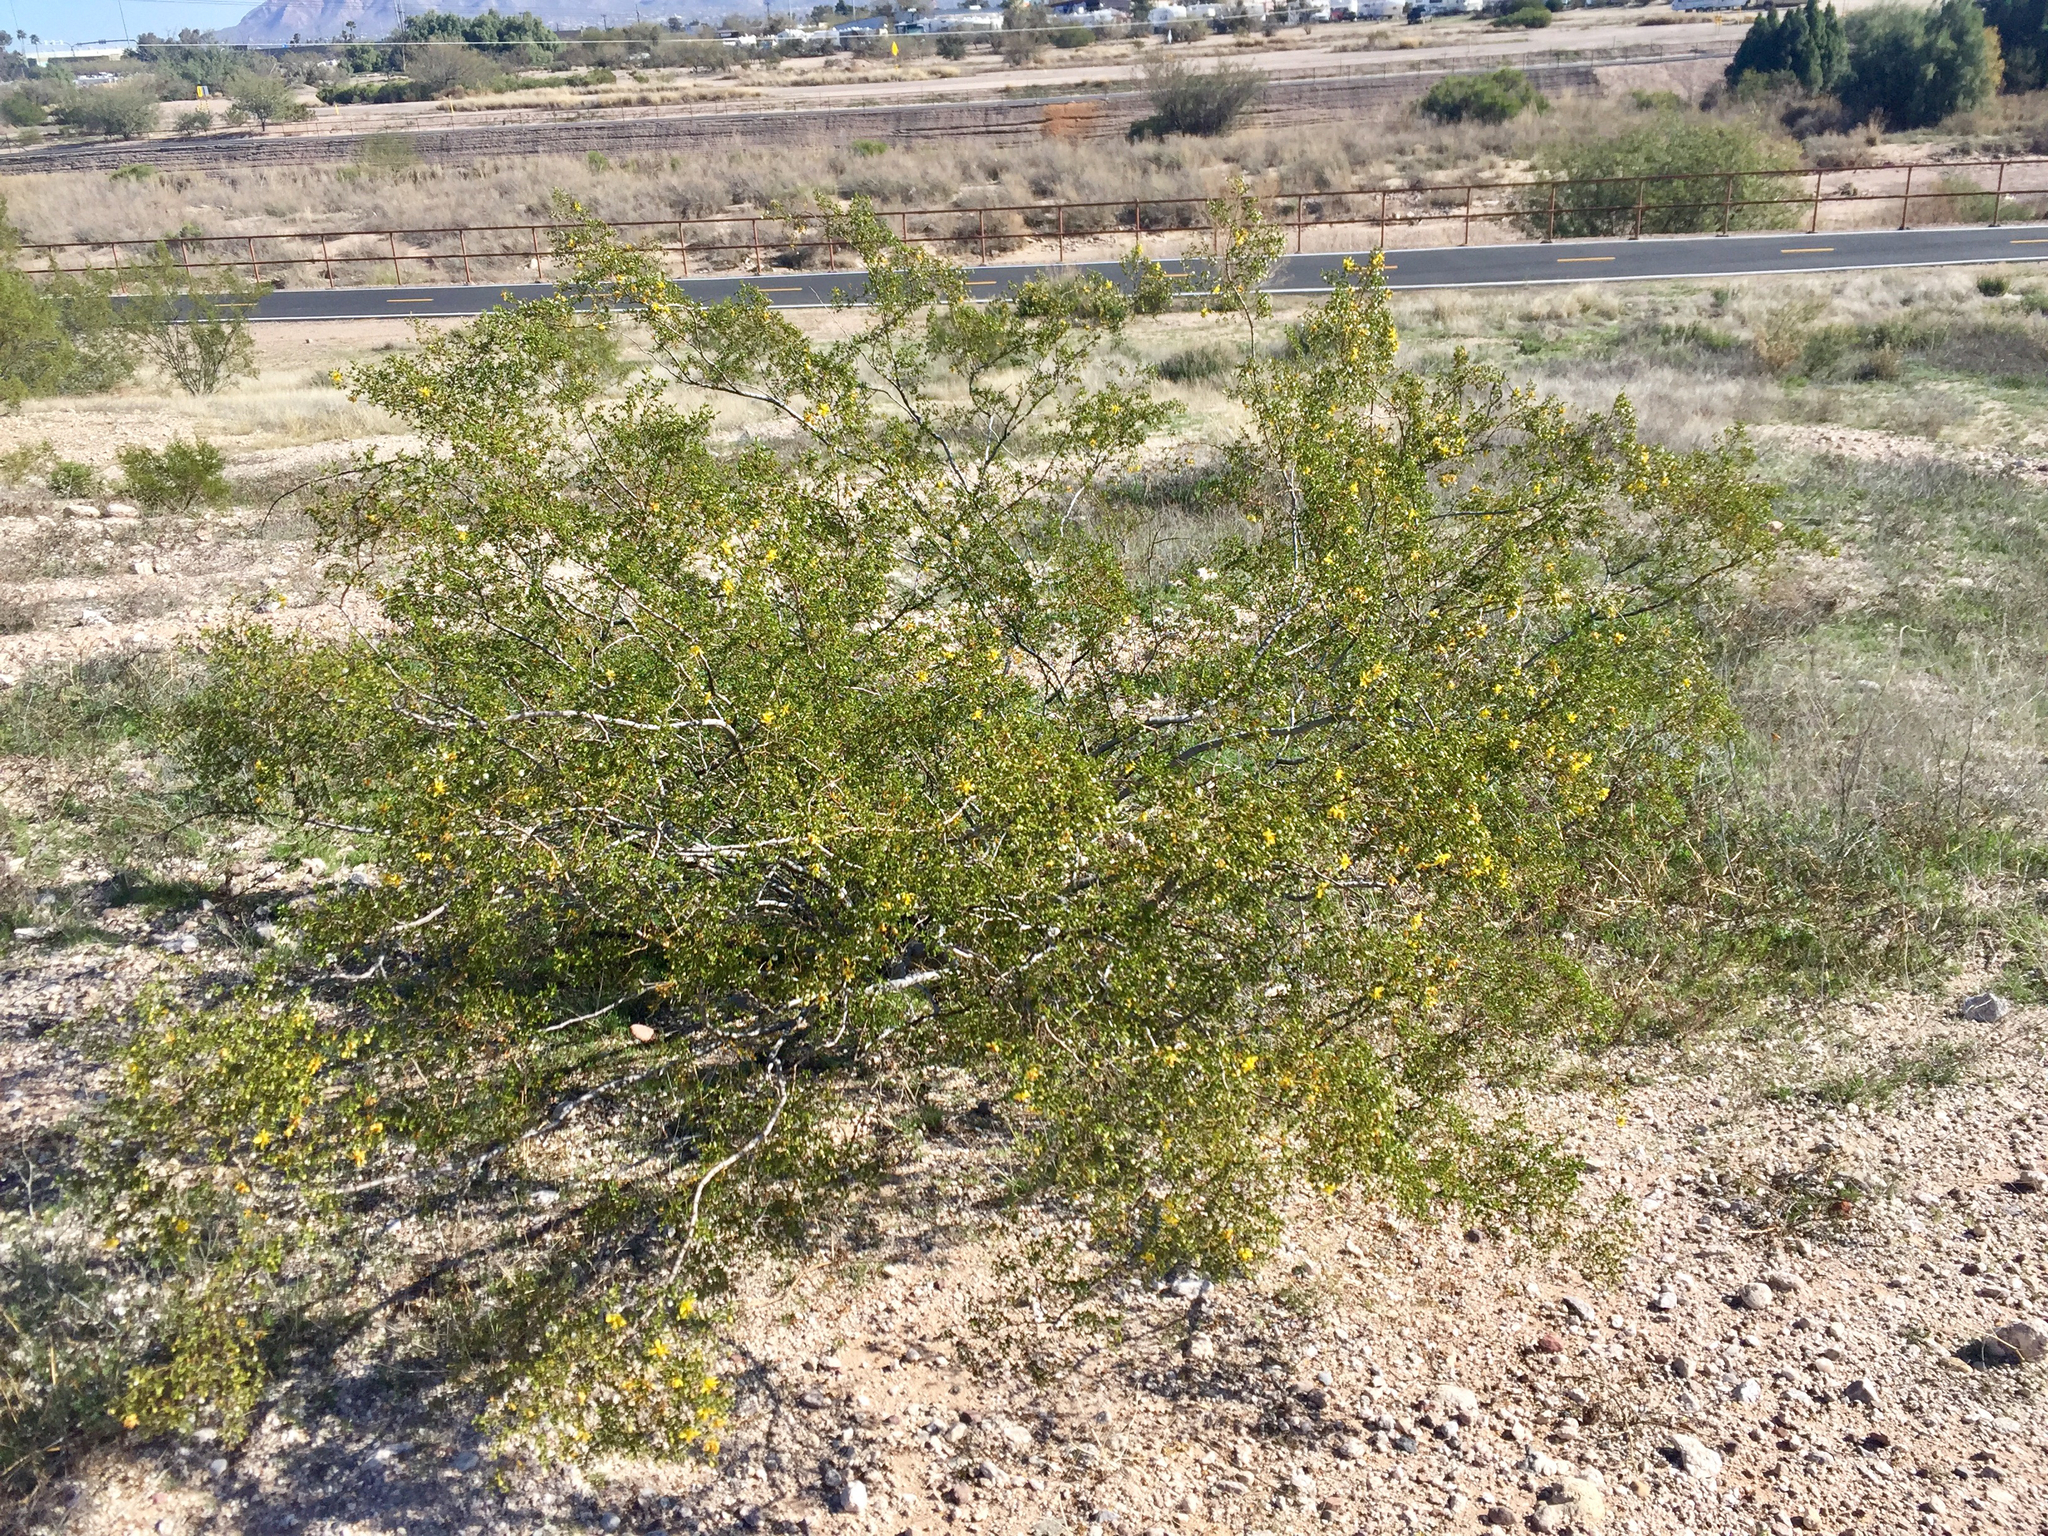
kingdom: Plantae
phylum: Tracheophyta
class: Magnoliopsida
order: Zygophyllales
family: Zygophyllaceae
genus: Larrea
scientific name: Larrea tridentata
